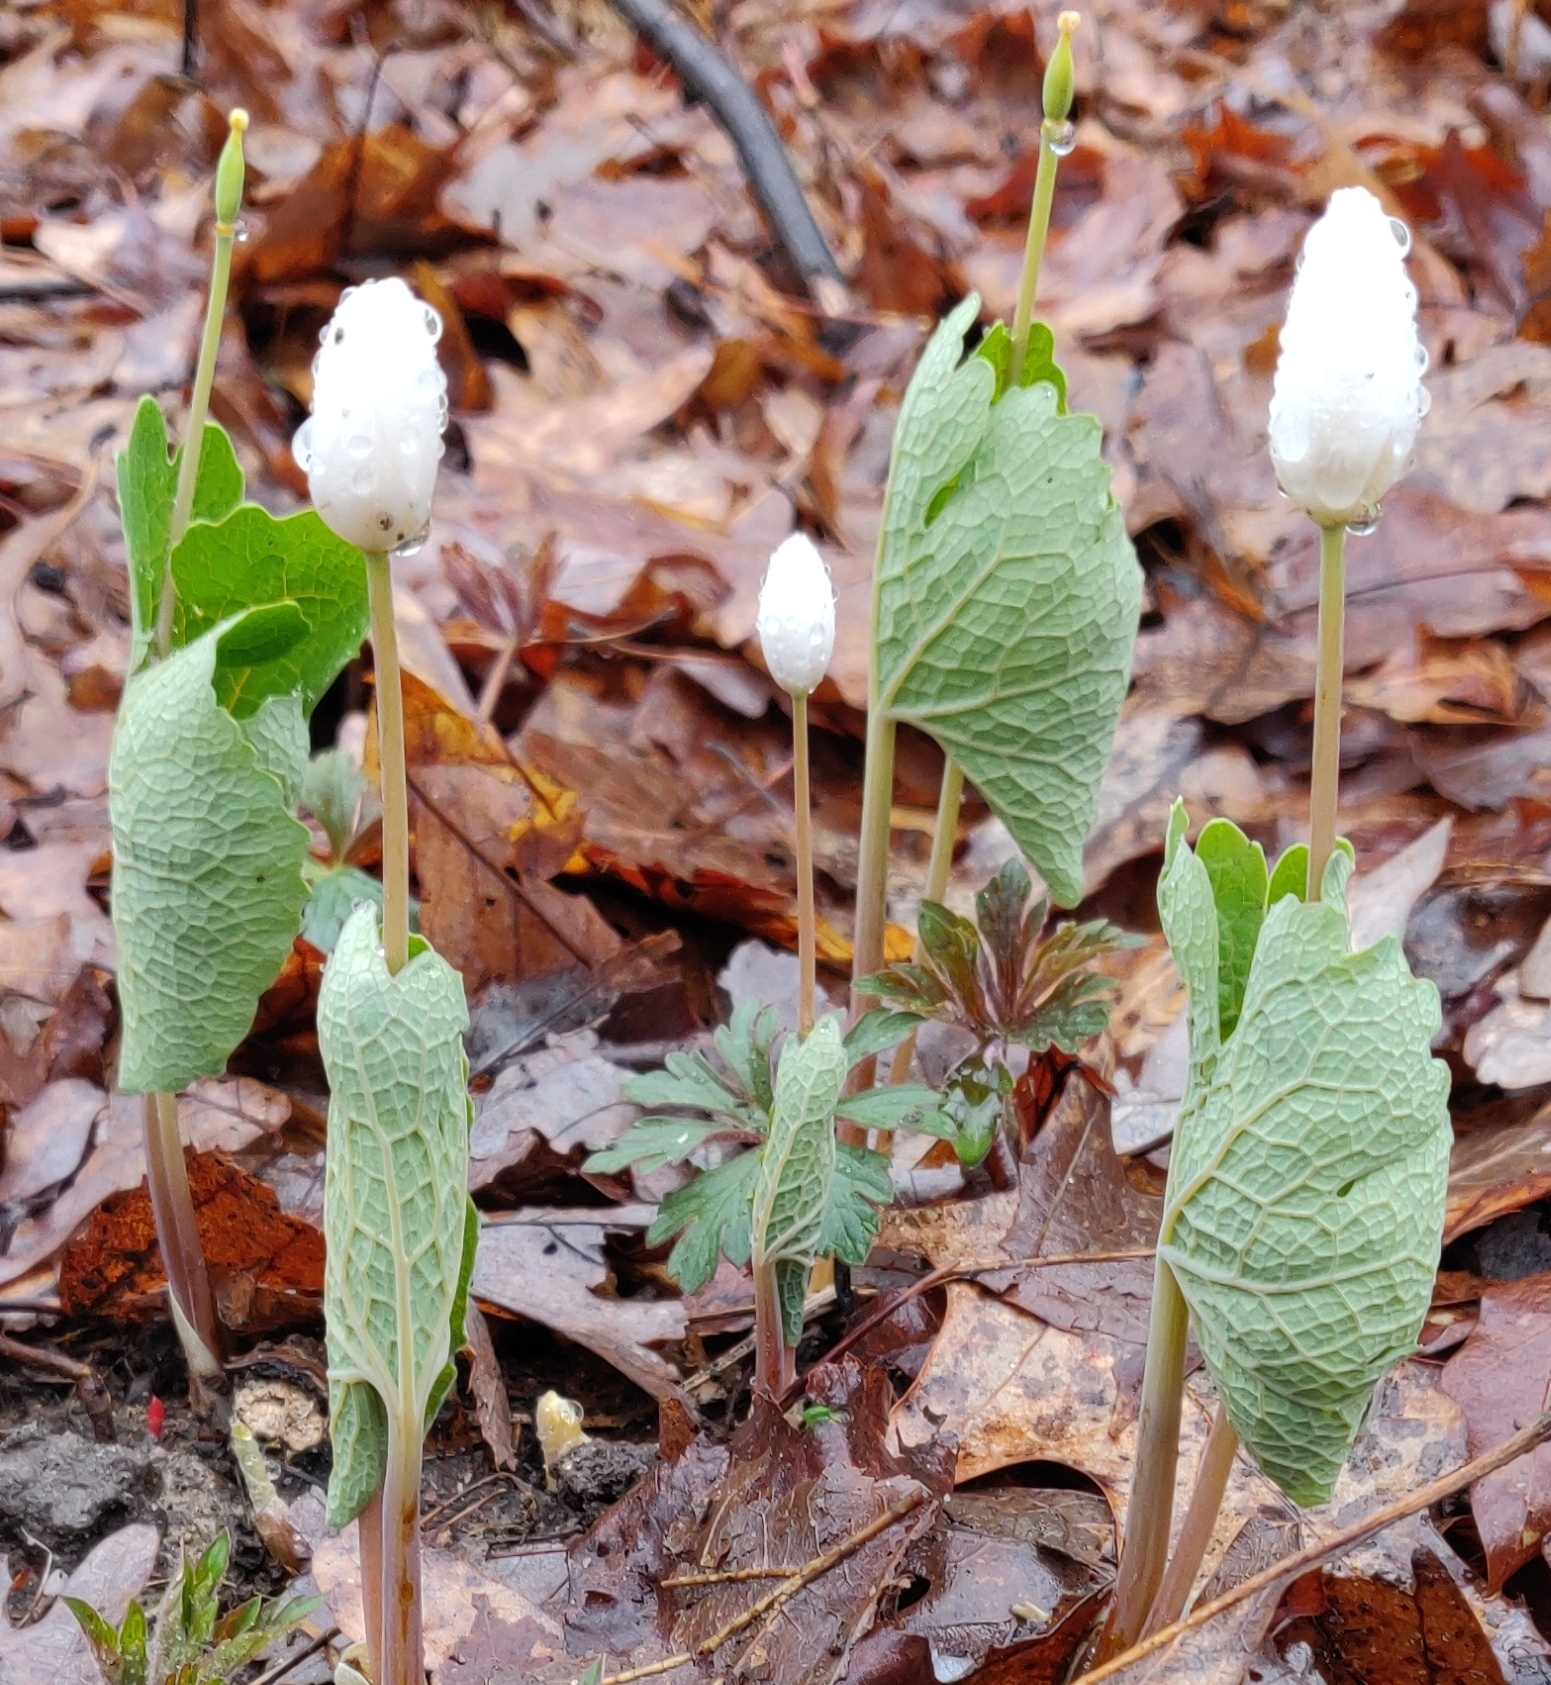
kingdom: Plantae
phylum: Tracheophyta
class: Magnoliopsida
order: Ranunculales
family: Papaveraceae
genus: Sanguinaria
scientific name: Sanguinaria canadensis
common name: Bloodroot
